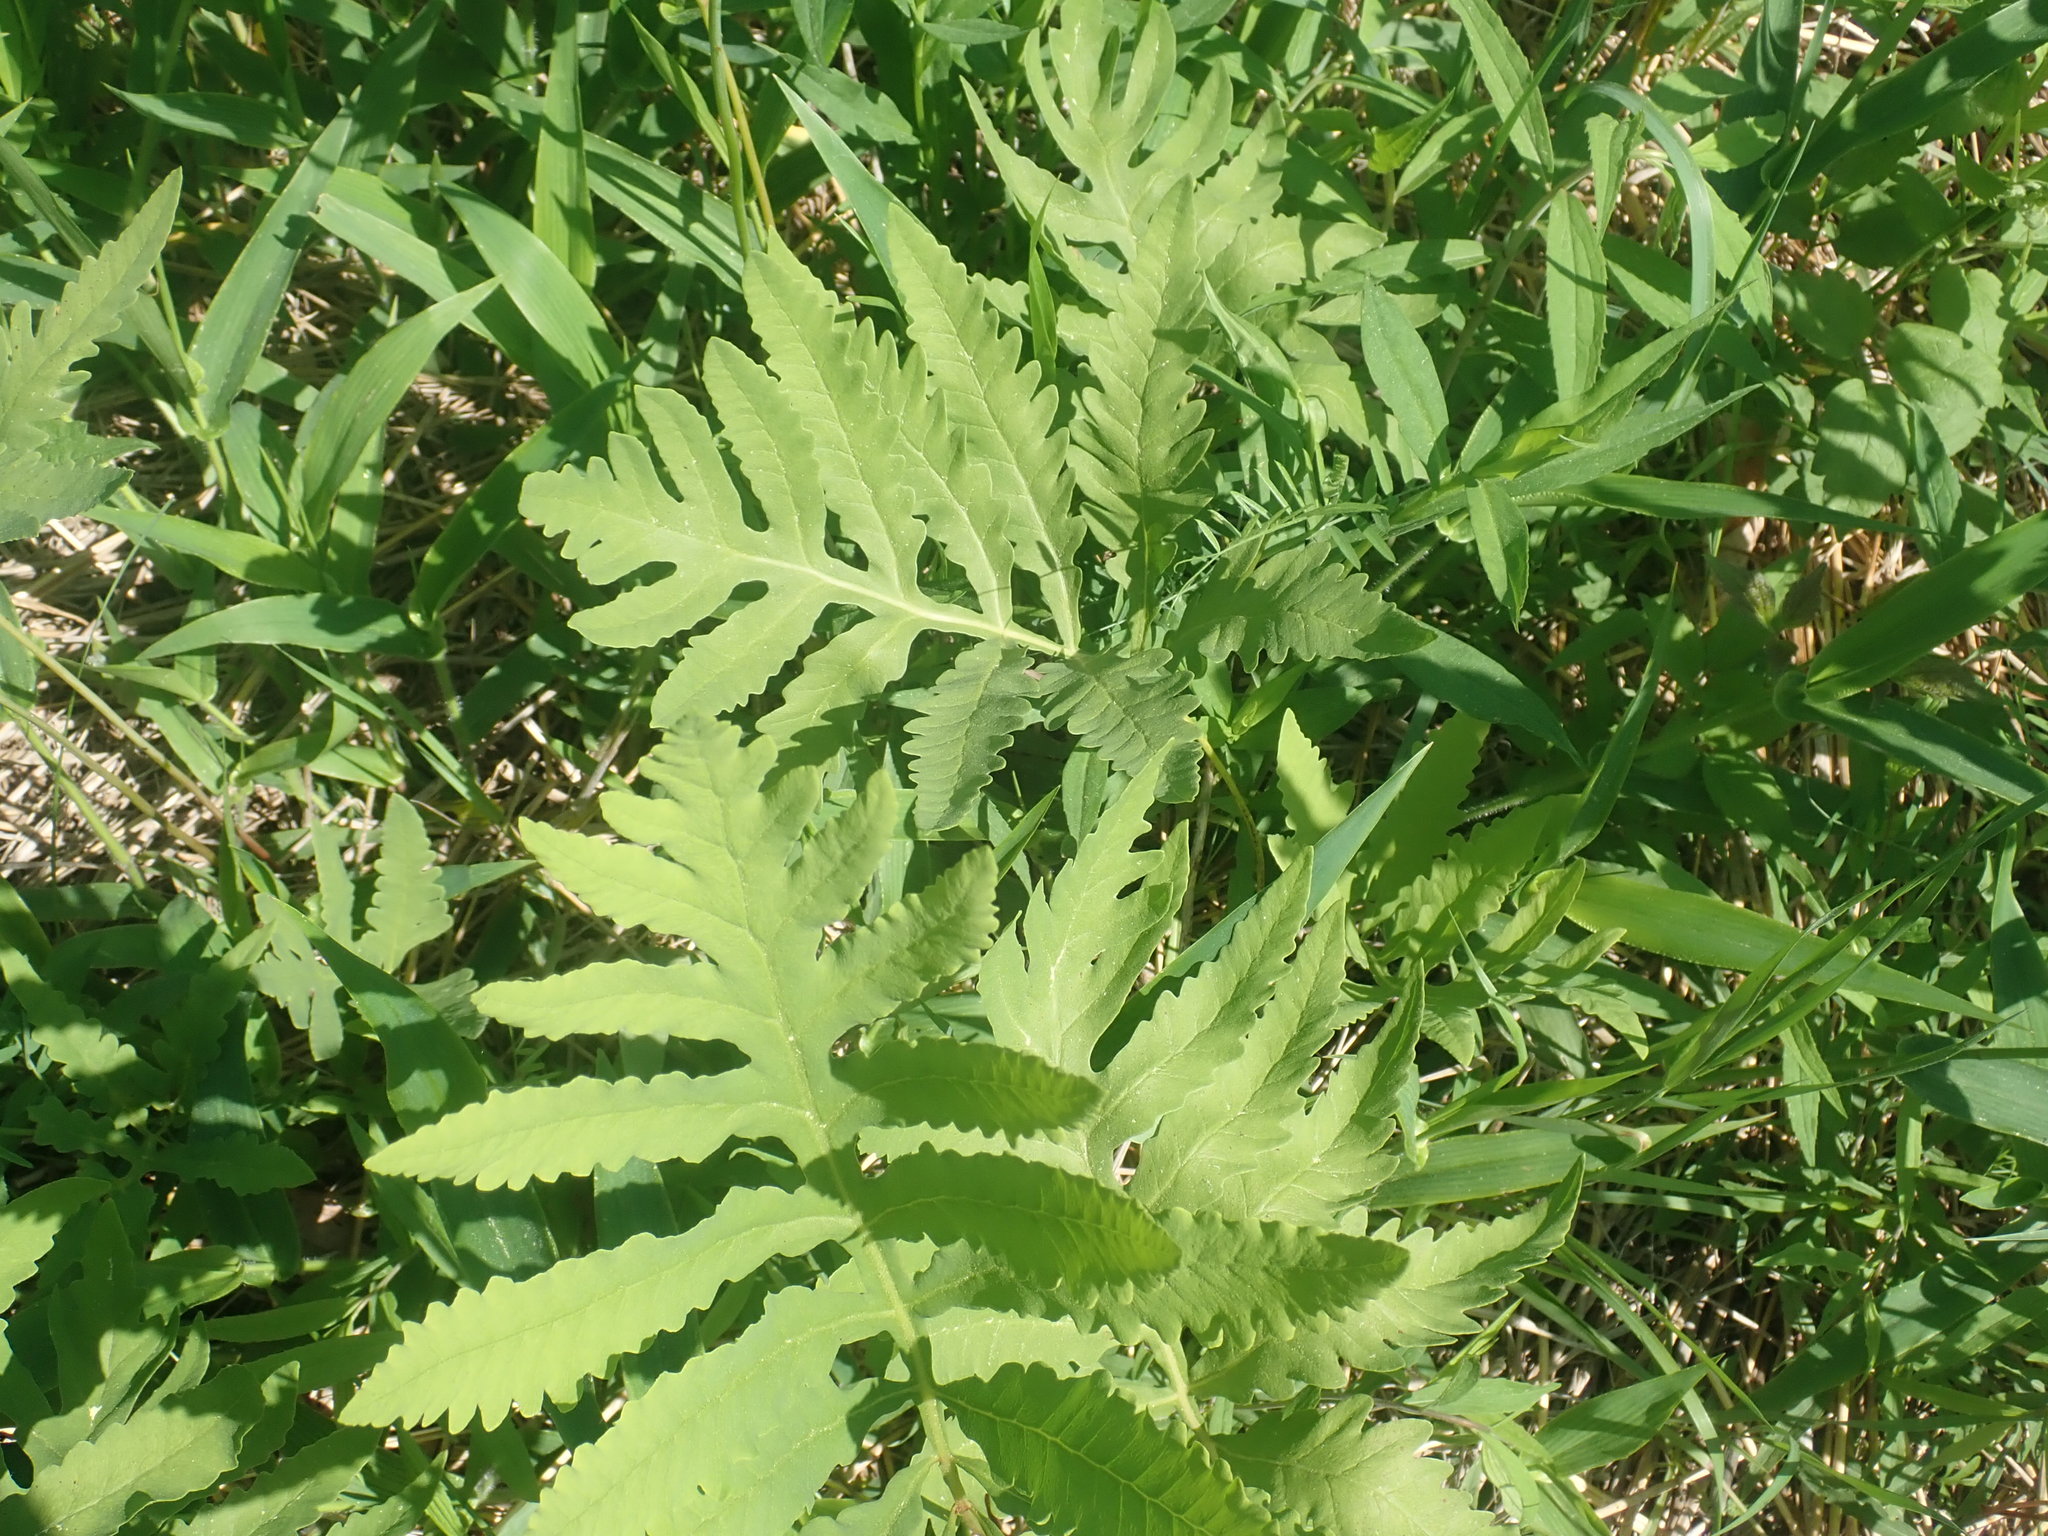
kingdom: Plantae
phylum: Tracheophyta
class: Polypodiopsida
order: Polypodiales
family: Onocleaceae
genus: Onoclea
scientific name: Onoclea sensibilis
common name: Sensitive fern
